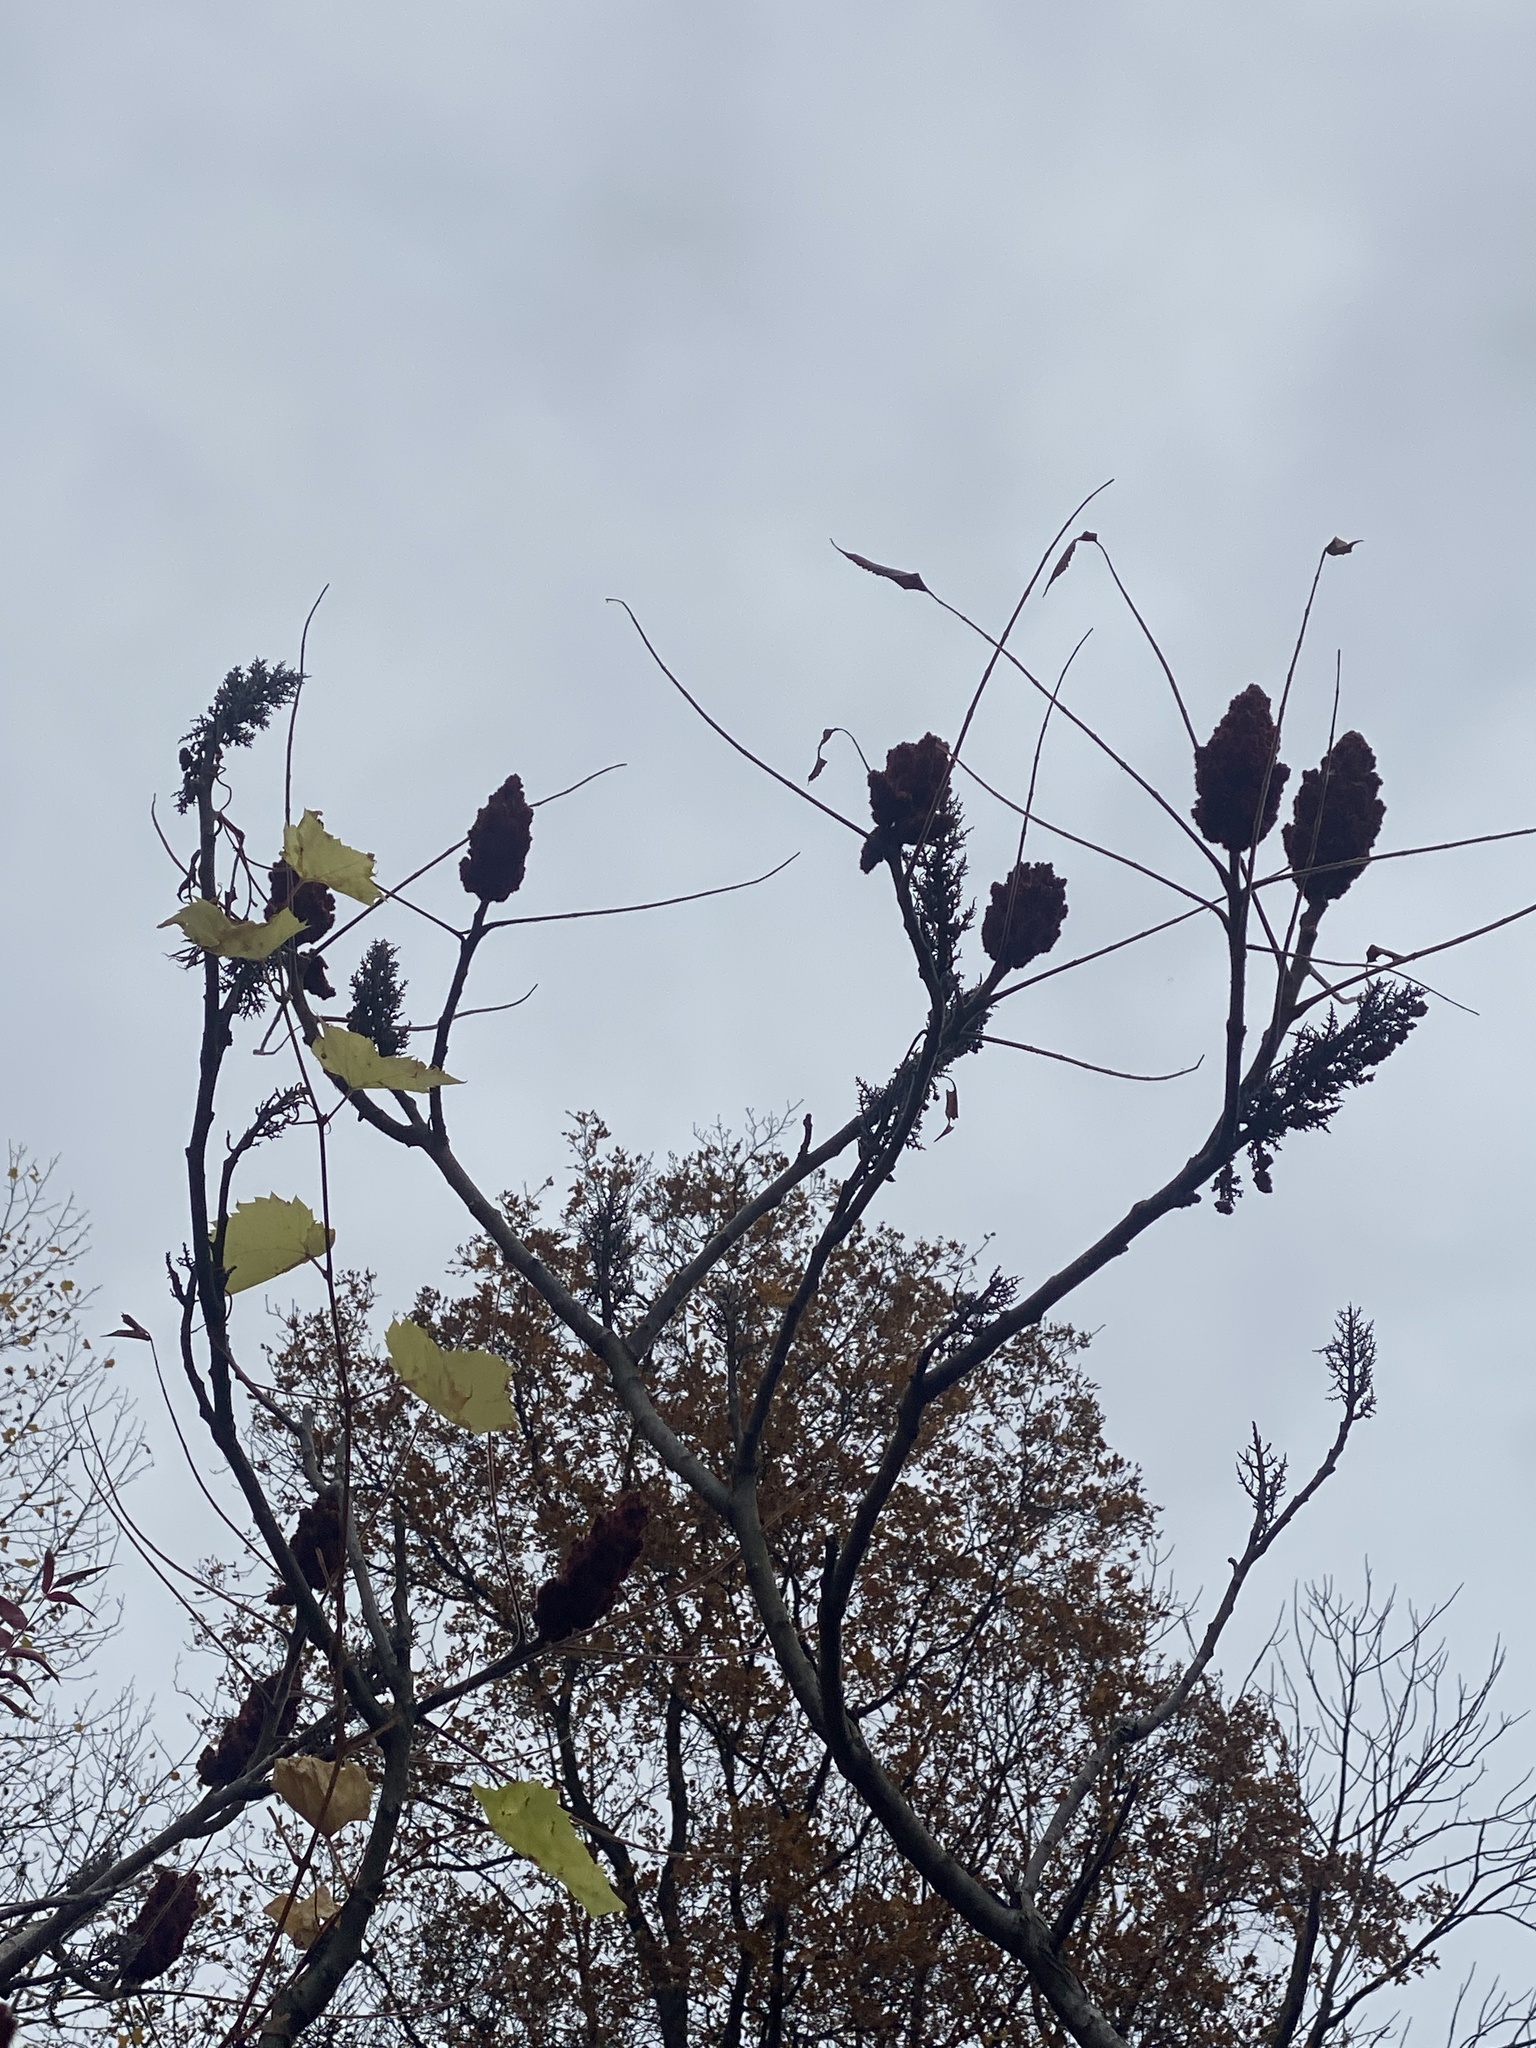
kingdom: Plantae
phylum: Tracheophyta
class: Magnoliopsida
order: Sapindales
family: Anacardiaceae
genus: Rhus
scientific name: Rhus typhina
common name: Staghorn sumac
